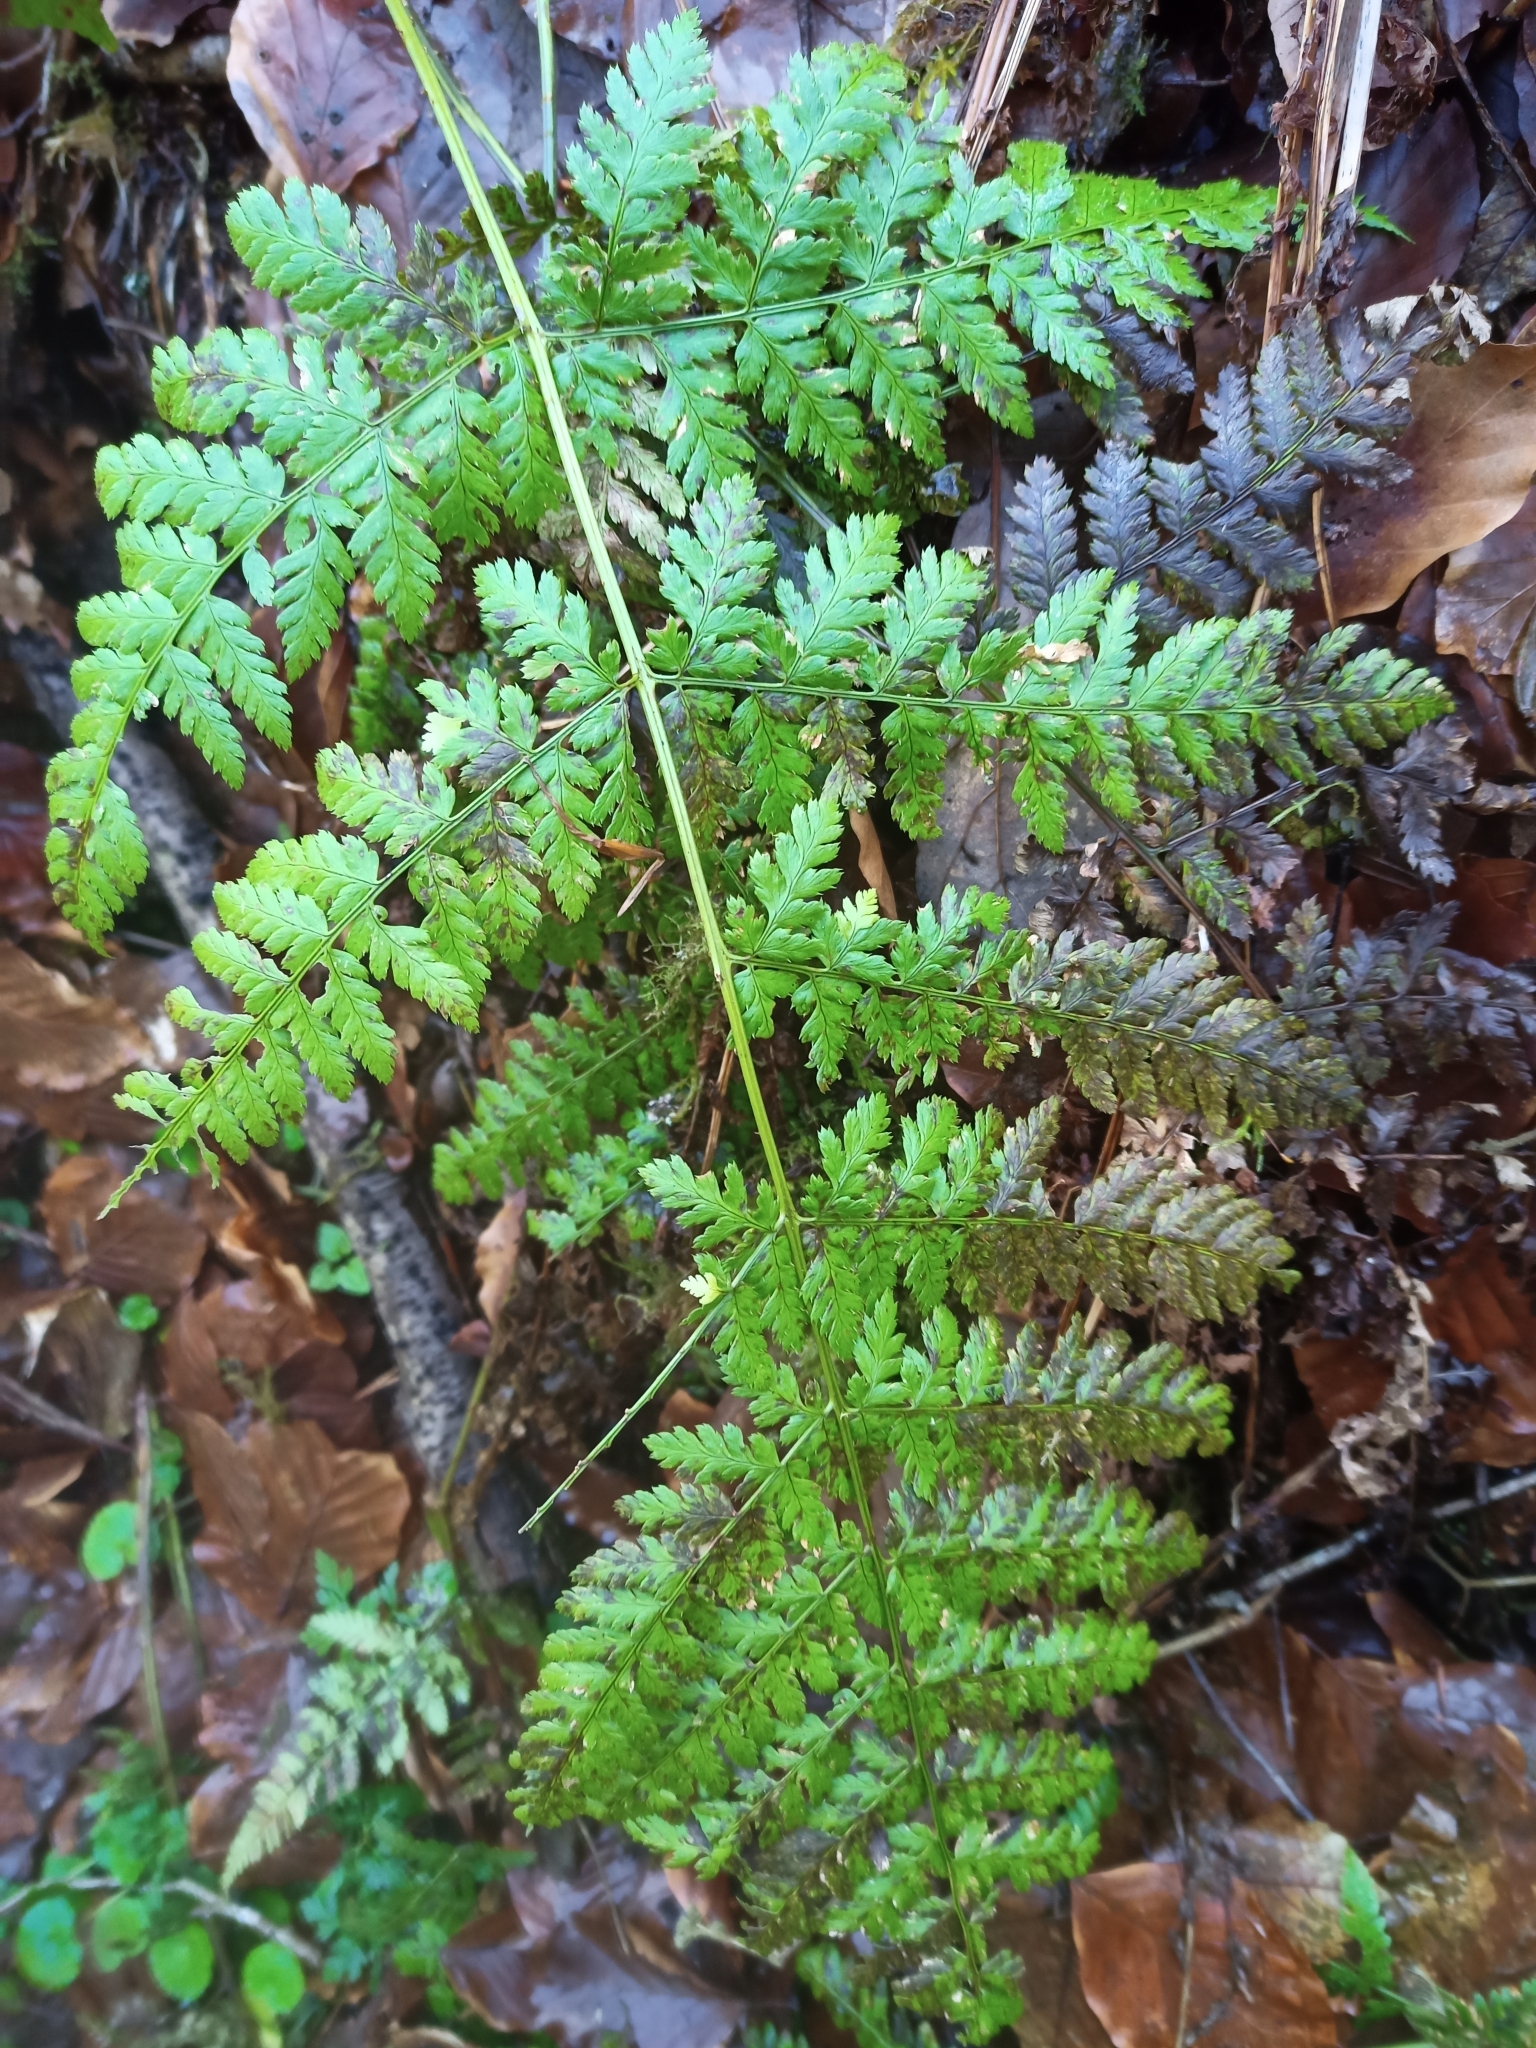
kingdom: Plantae
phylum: Tracheophyta
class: Polypodiopsida
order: Polypodiales
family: Dryopteridaceae
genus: Dryopteris
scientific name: Dryopteris dilatata
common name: Broad buckler-fern
